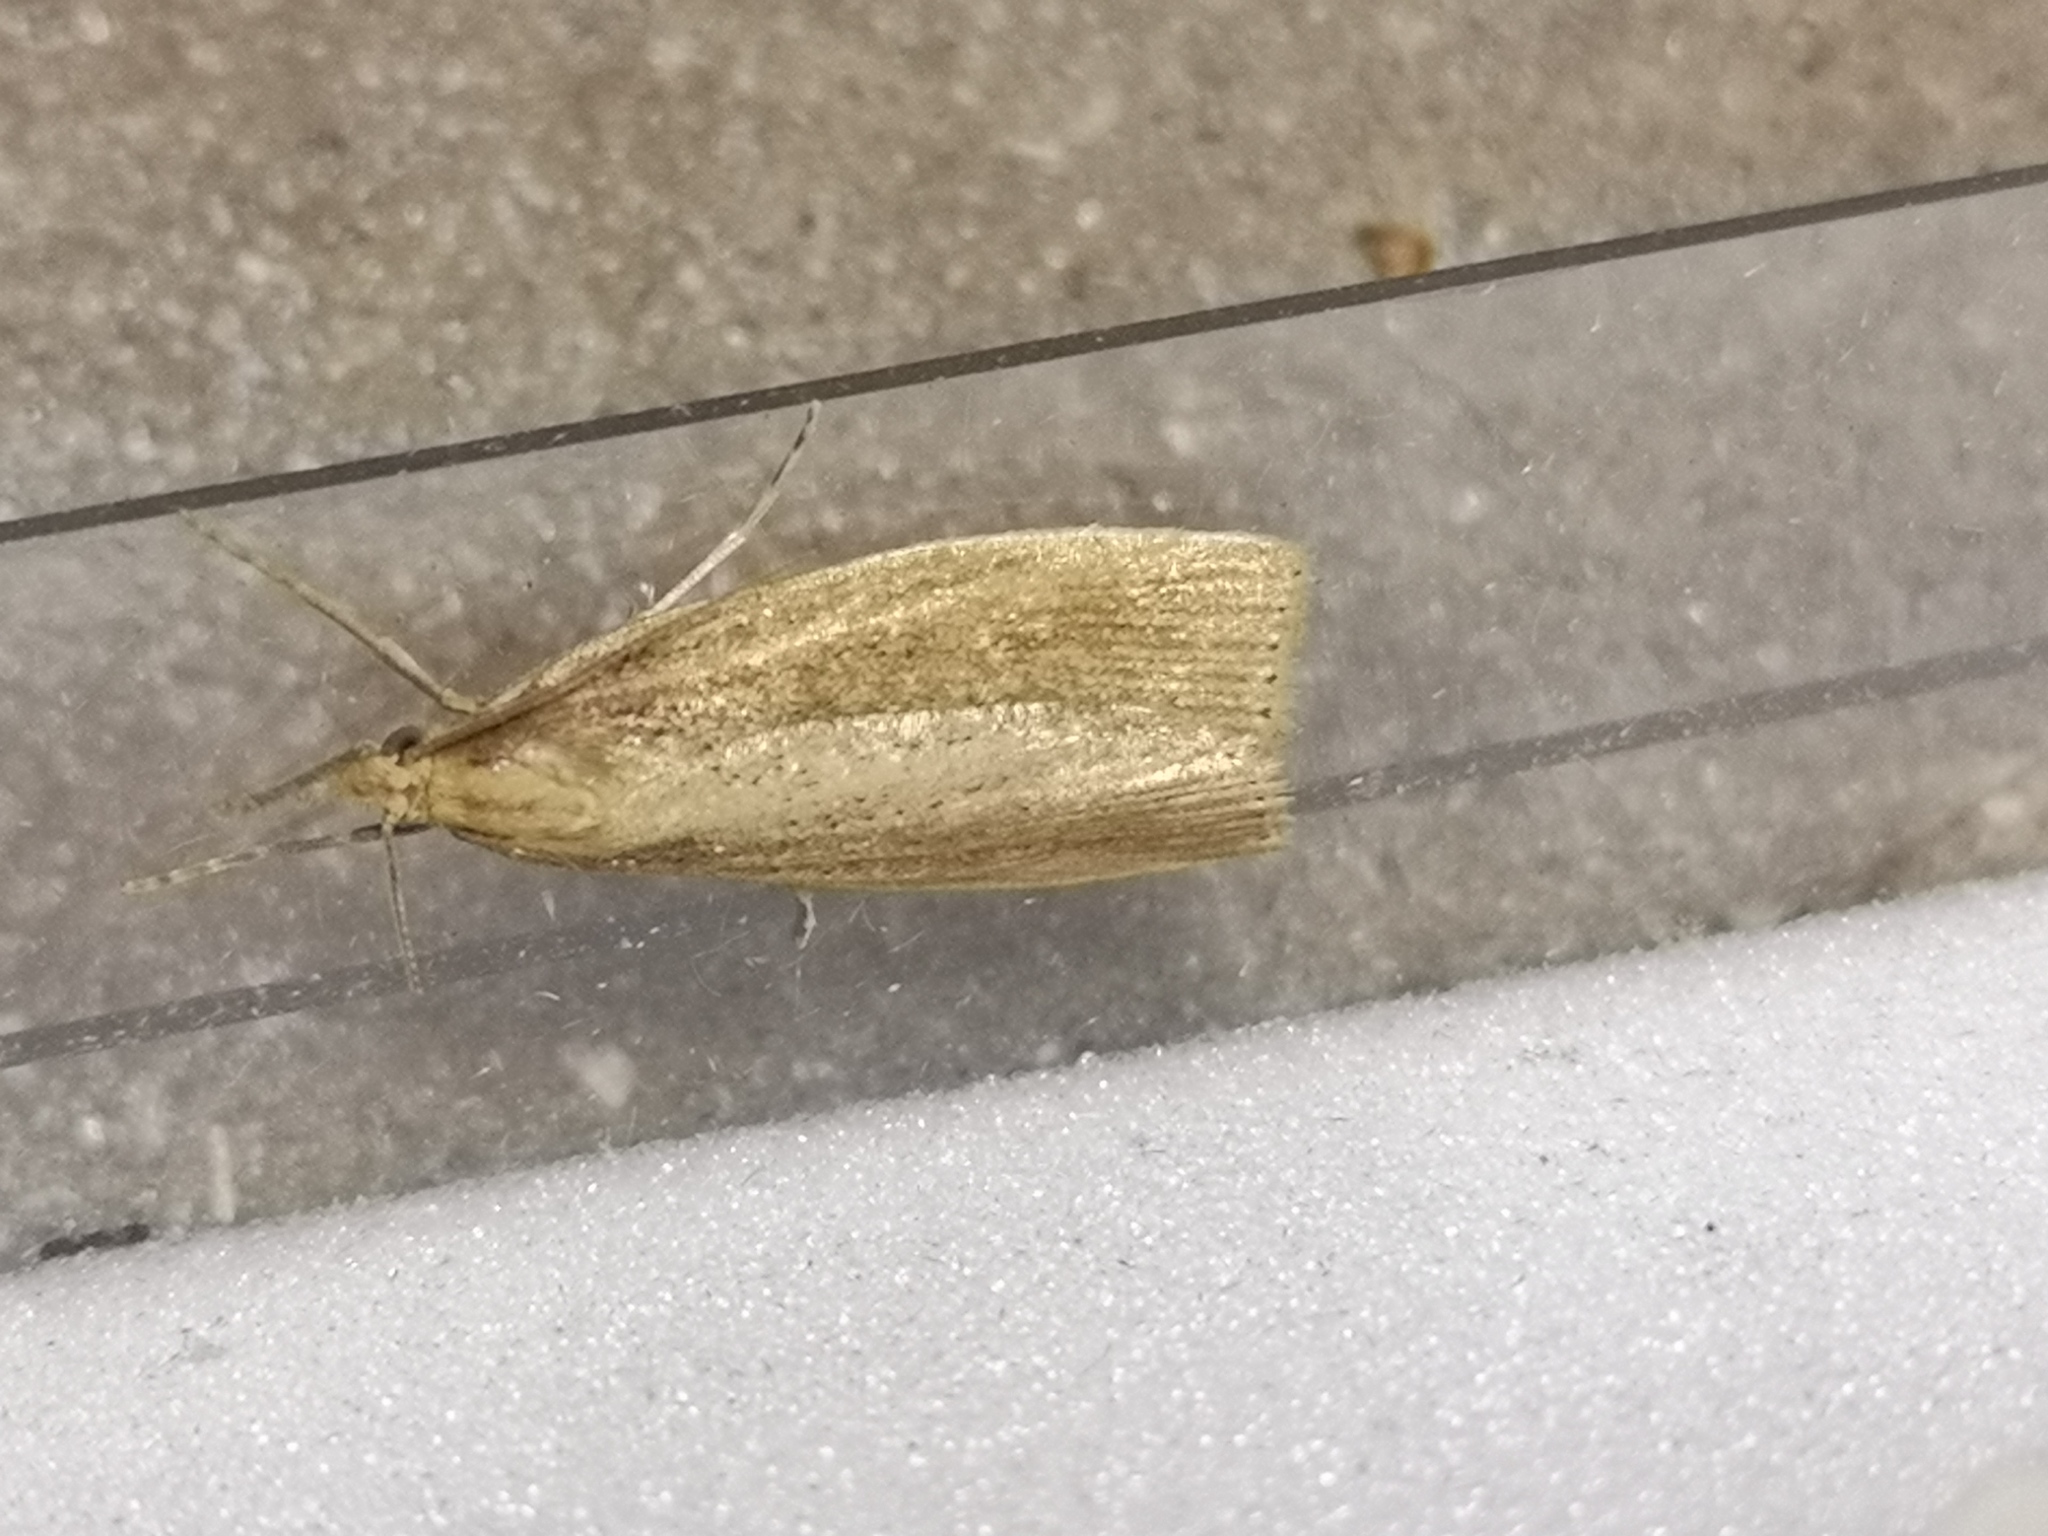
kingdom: Animalia
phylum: Arthropoda
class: Insecta
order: Lepidoptera
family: Crambidae
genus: Chilo
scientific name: Chilo phragmitella
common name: Reed veneer
